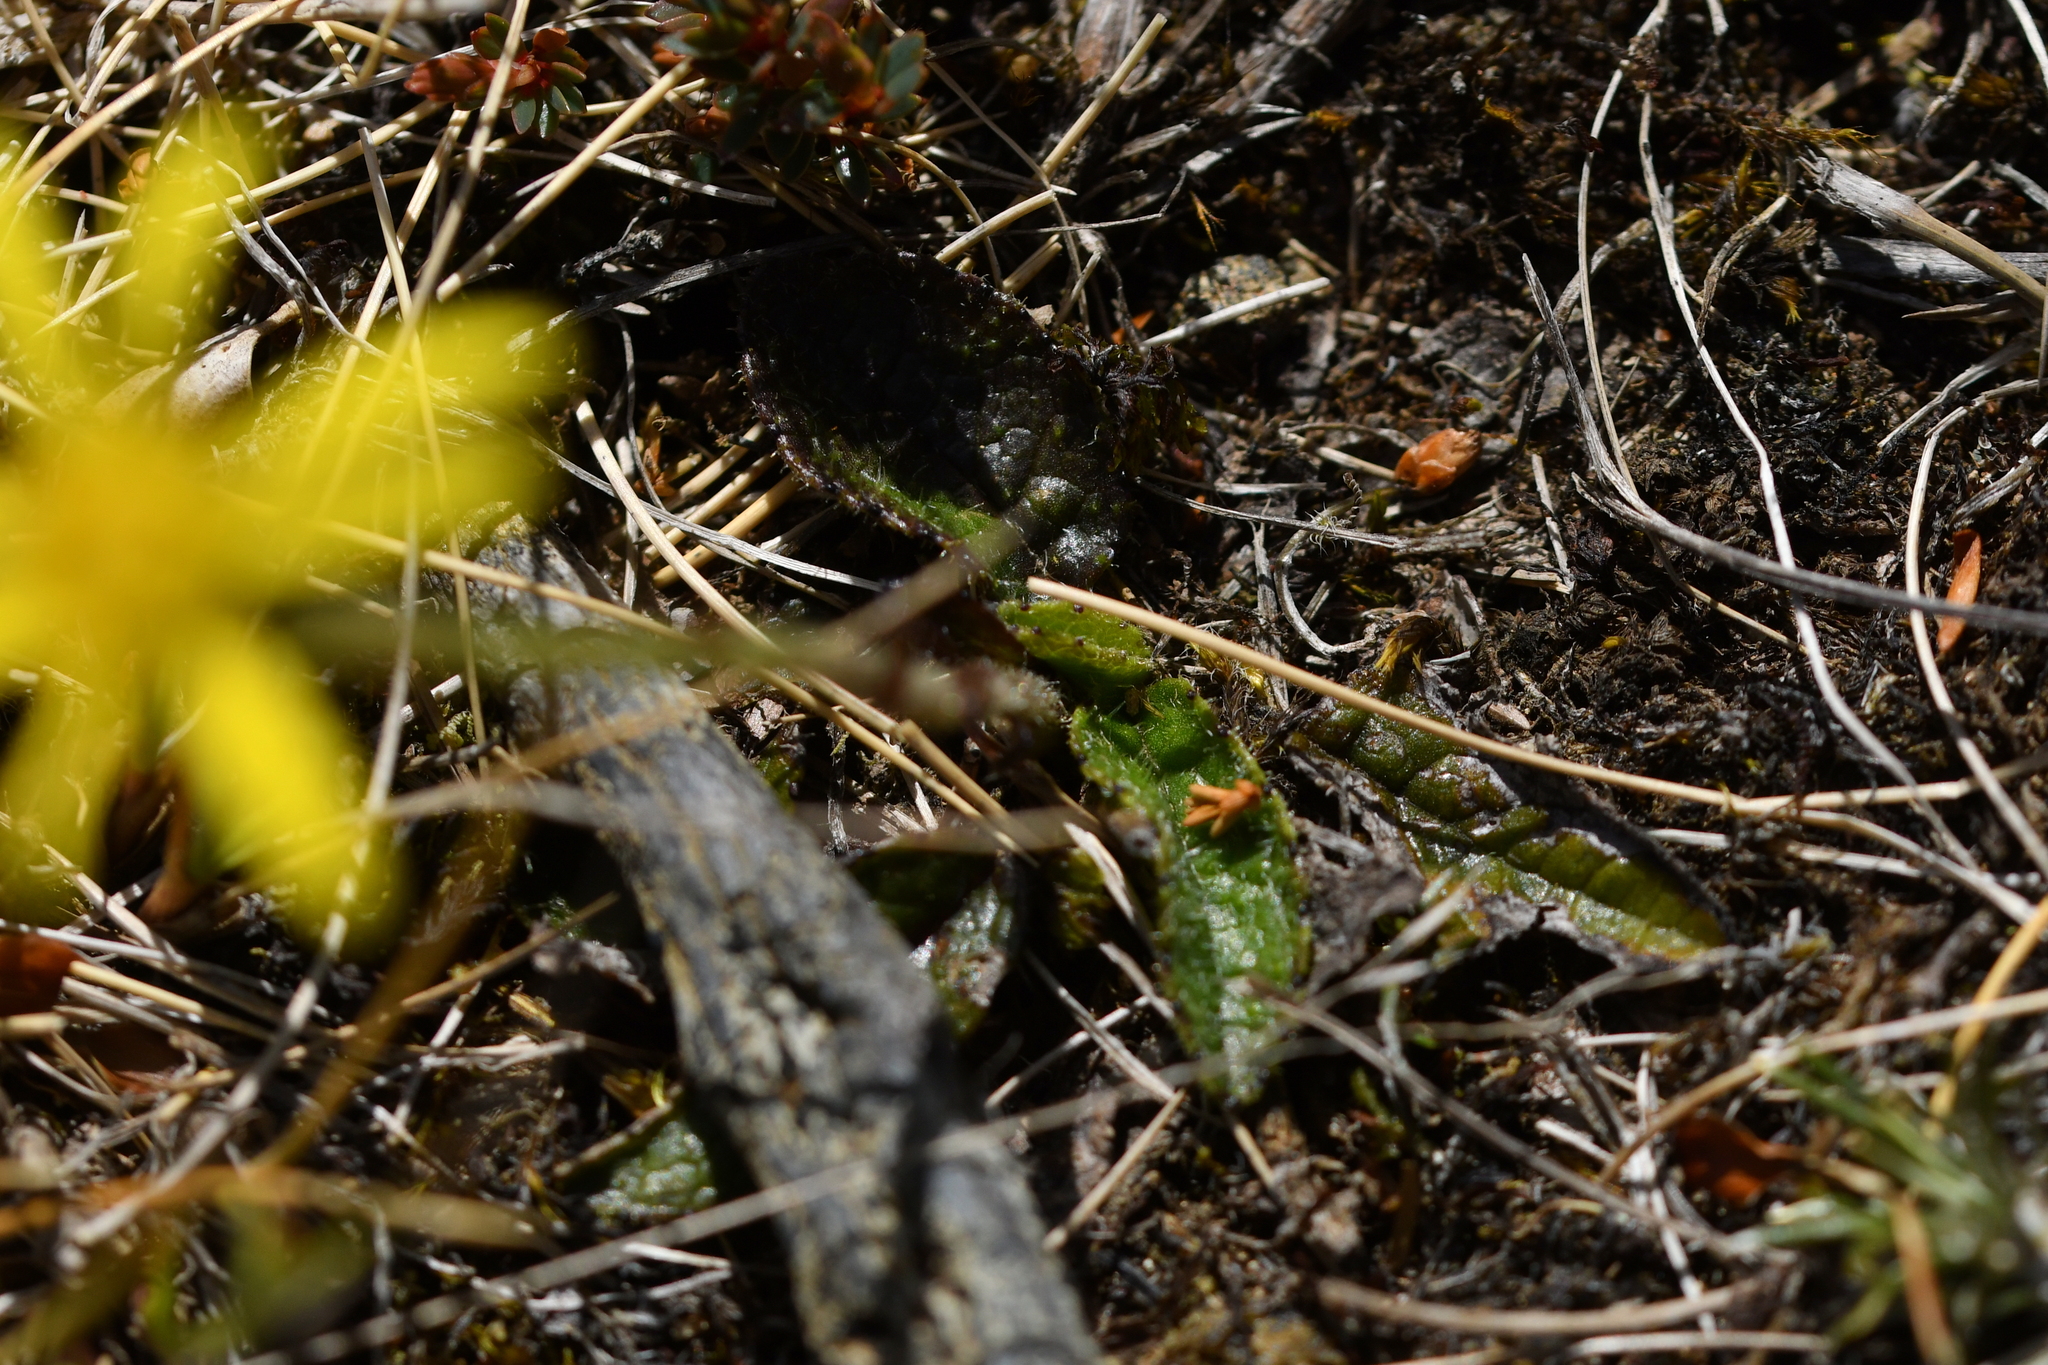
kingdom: Plantae
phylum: Tracheophyta
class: Magnoliopsida
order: Asterales
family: Asteraceae
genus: Brachyglottis
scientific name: Brachyglottis bellidioides
